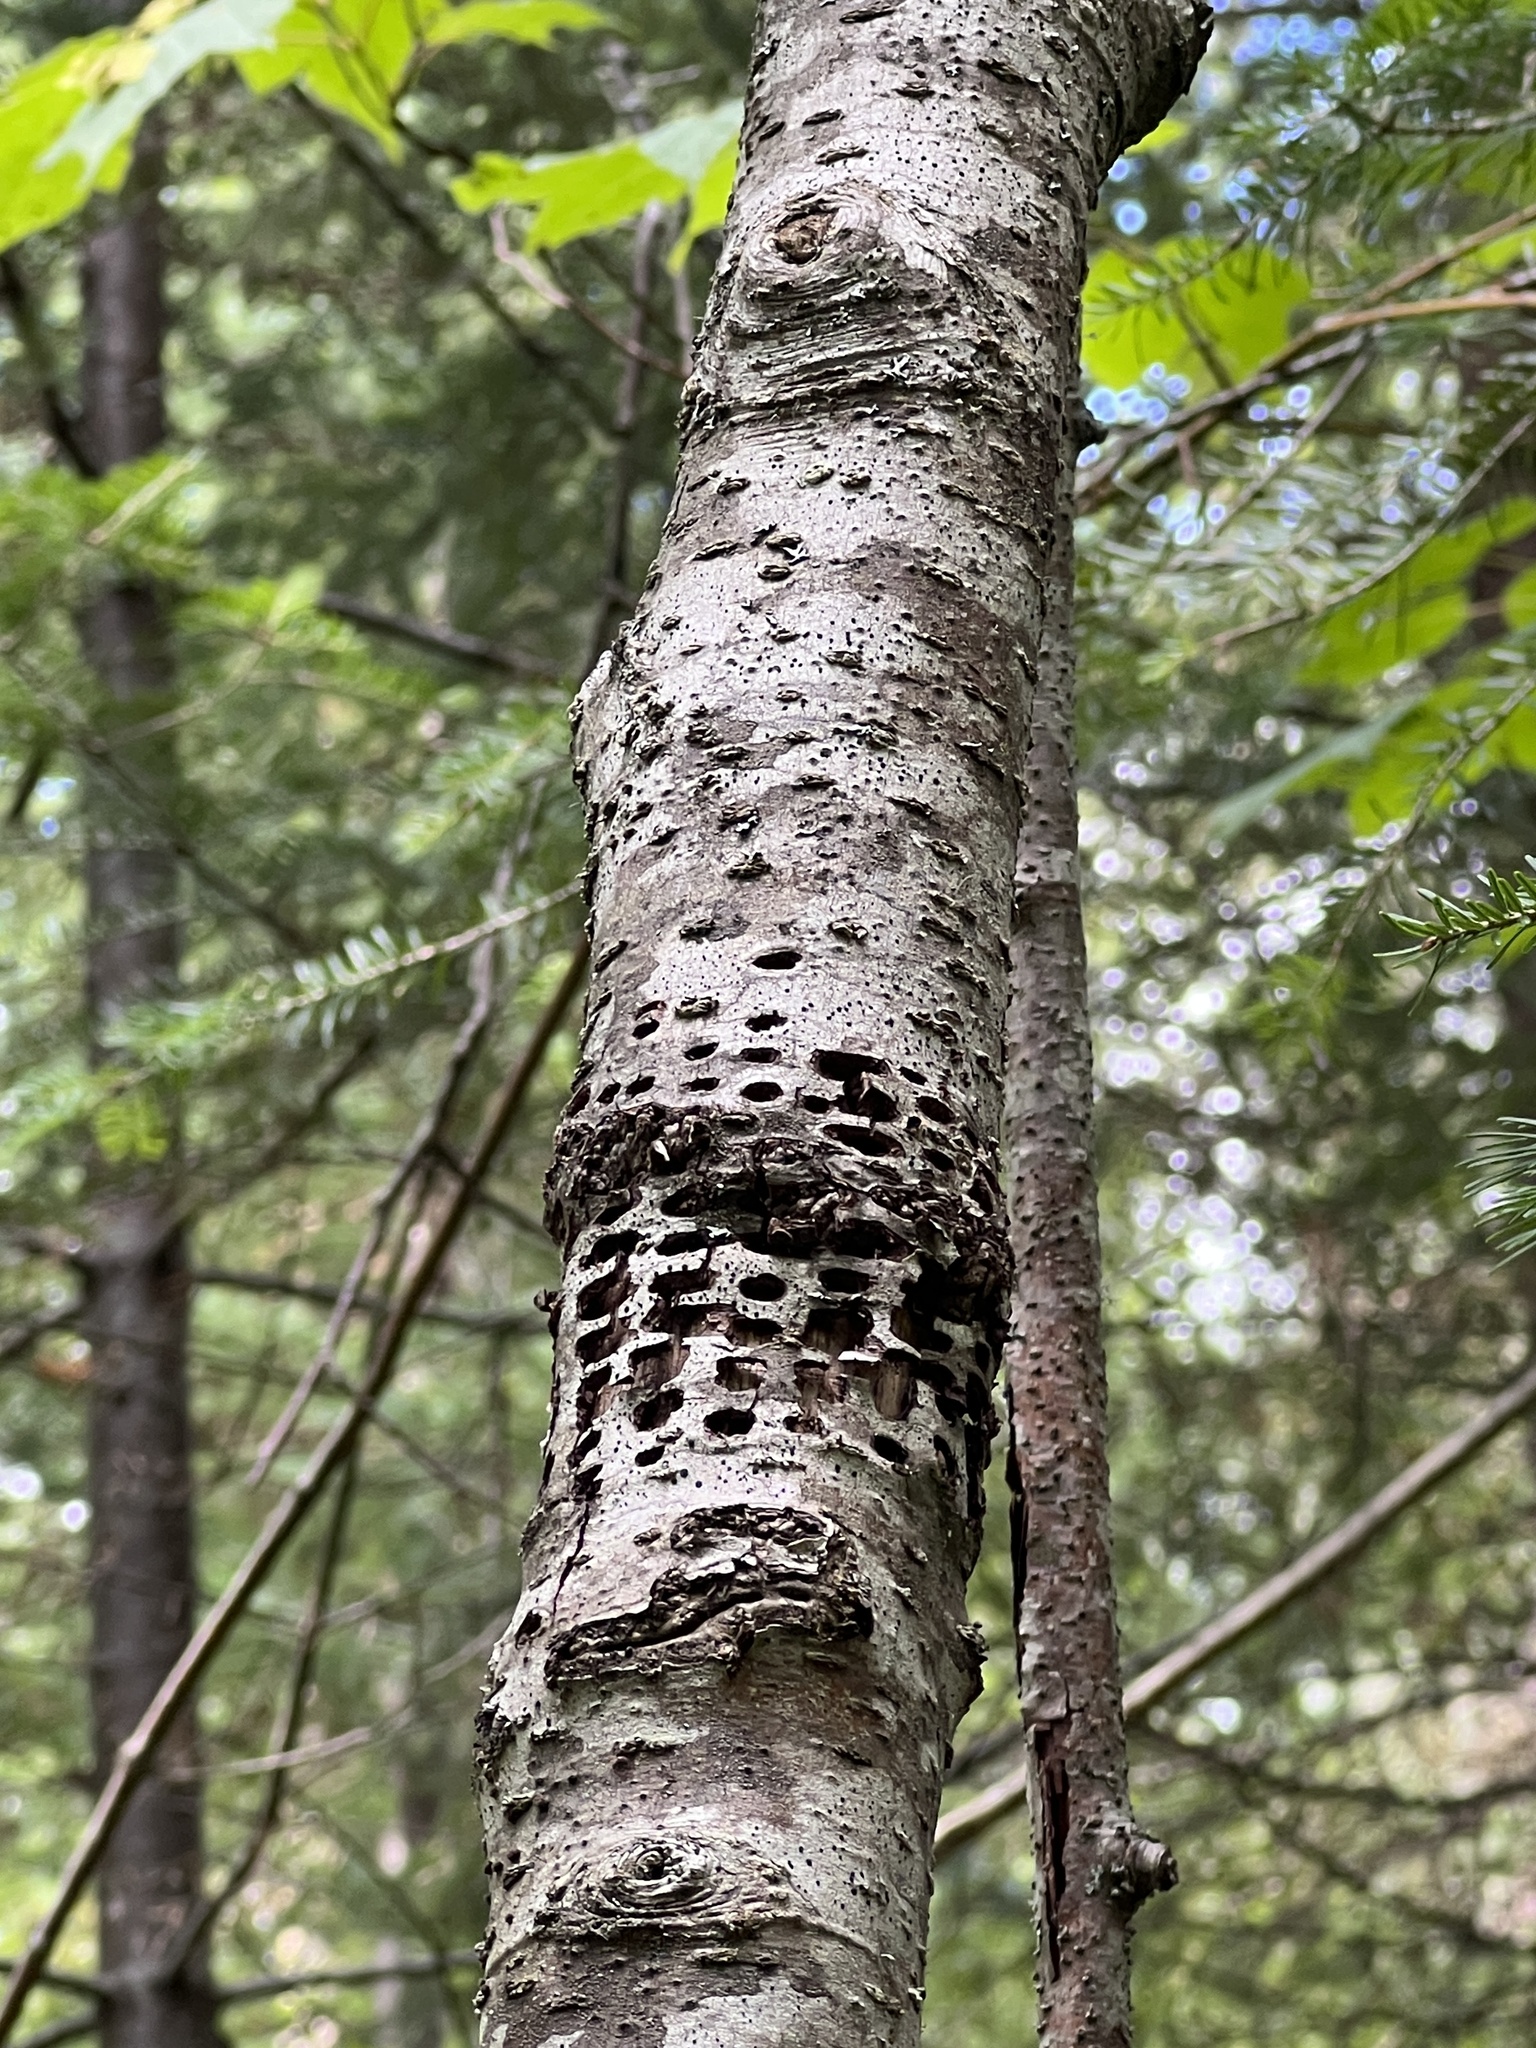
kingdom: Animalia
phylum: Chordata
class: Aves
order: Piciformes
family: Picidae
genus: Sphyrapicus
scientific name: Sphyrapicus varius
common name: Yellow-bellied sapsucker
